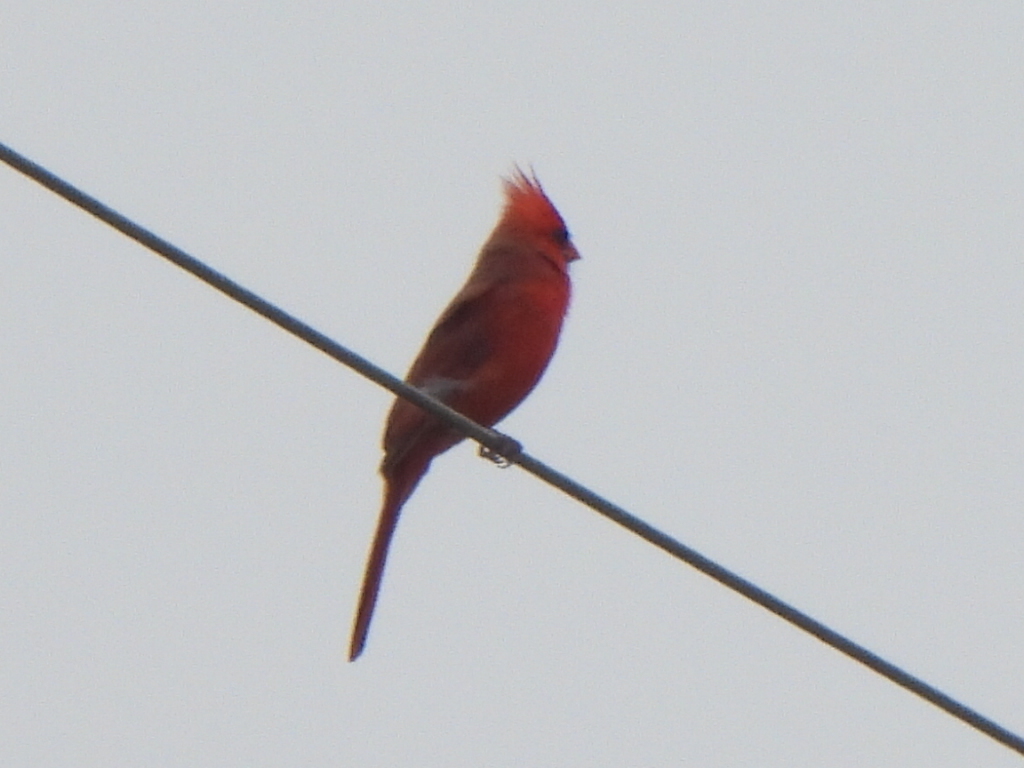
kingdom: Animalia
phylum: Chordata
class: Aves
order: Passeriformes
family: Cardinalidae
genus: Cardinalis
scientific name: Cardinalis cardinalis
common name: Northern cardinal
